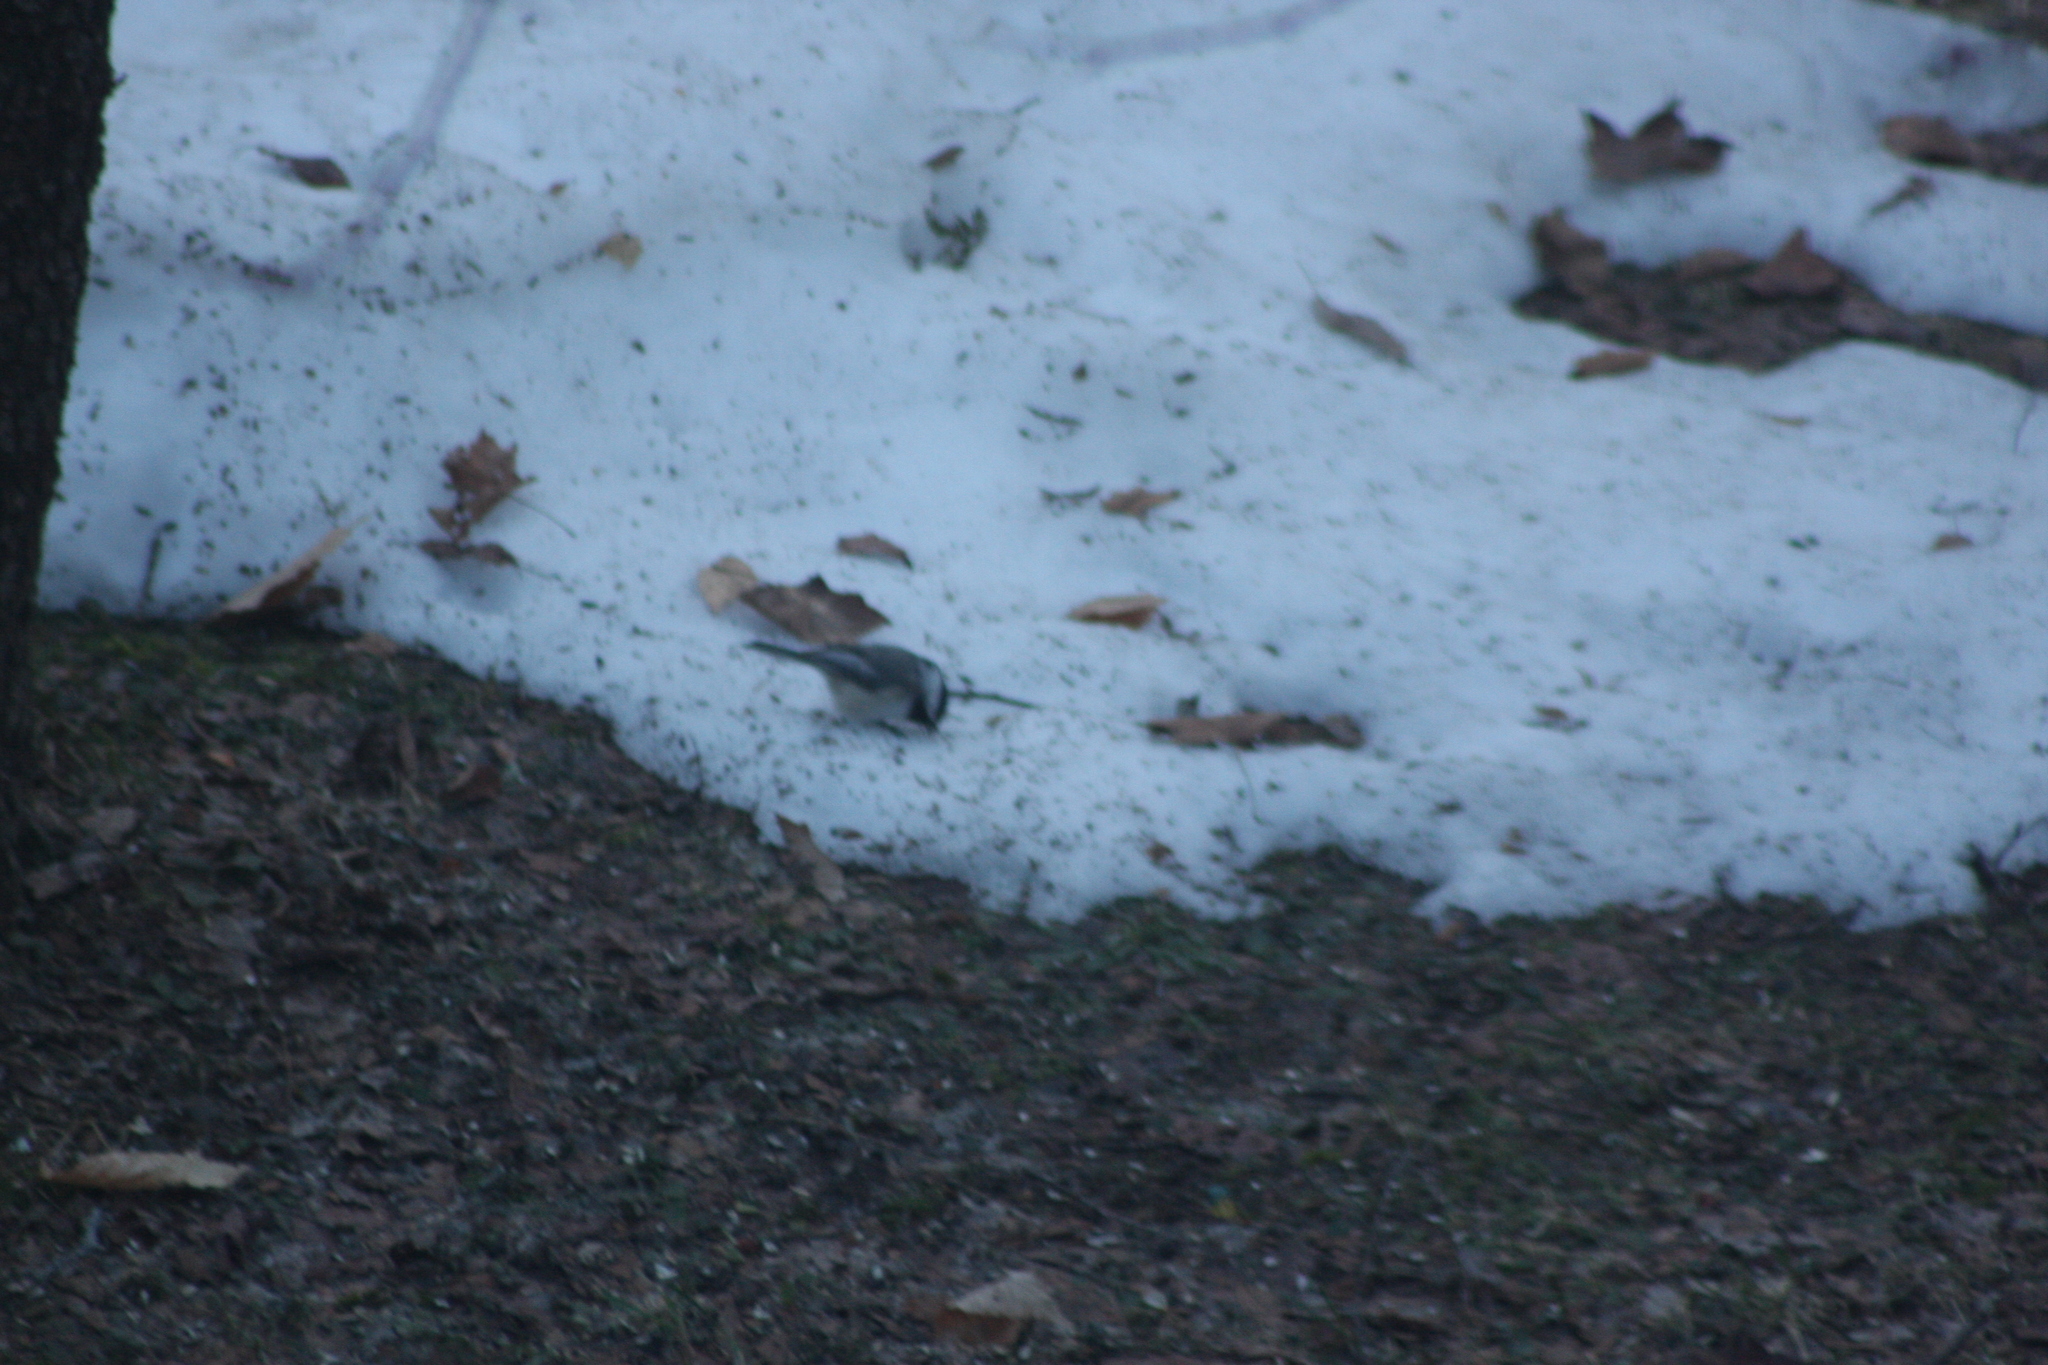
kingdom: Animalia
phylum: Chordata
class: Aves
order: Passeriformes
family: Paridae
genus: Poecile
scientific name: Poecile atricapillus
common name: Black-capped chickadee
